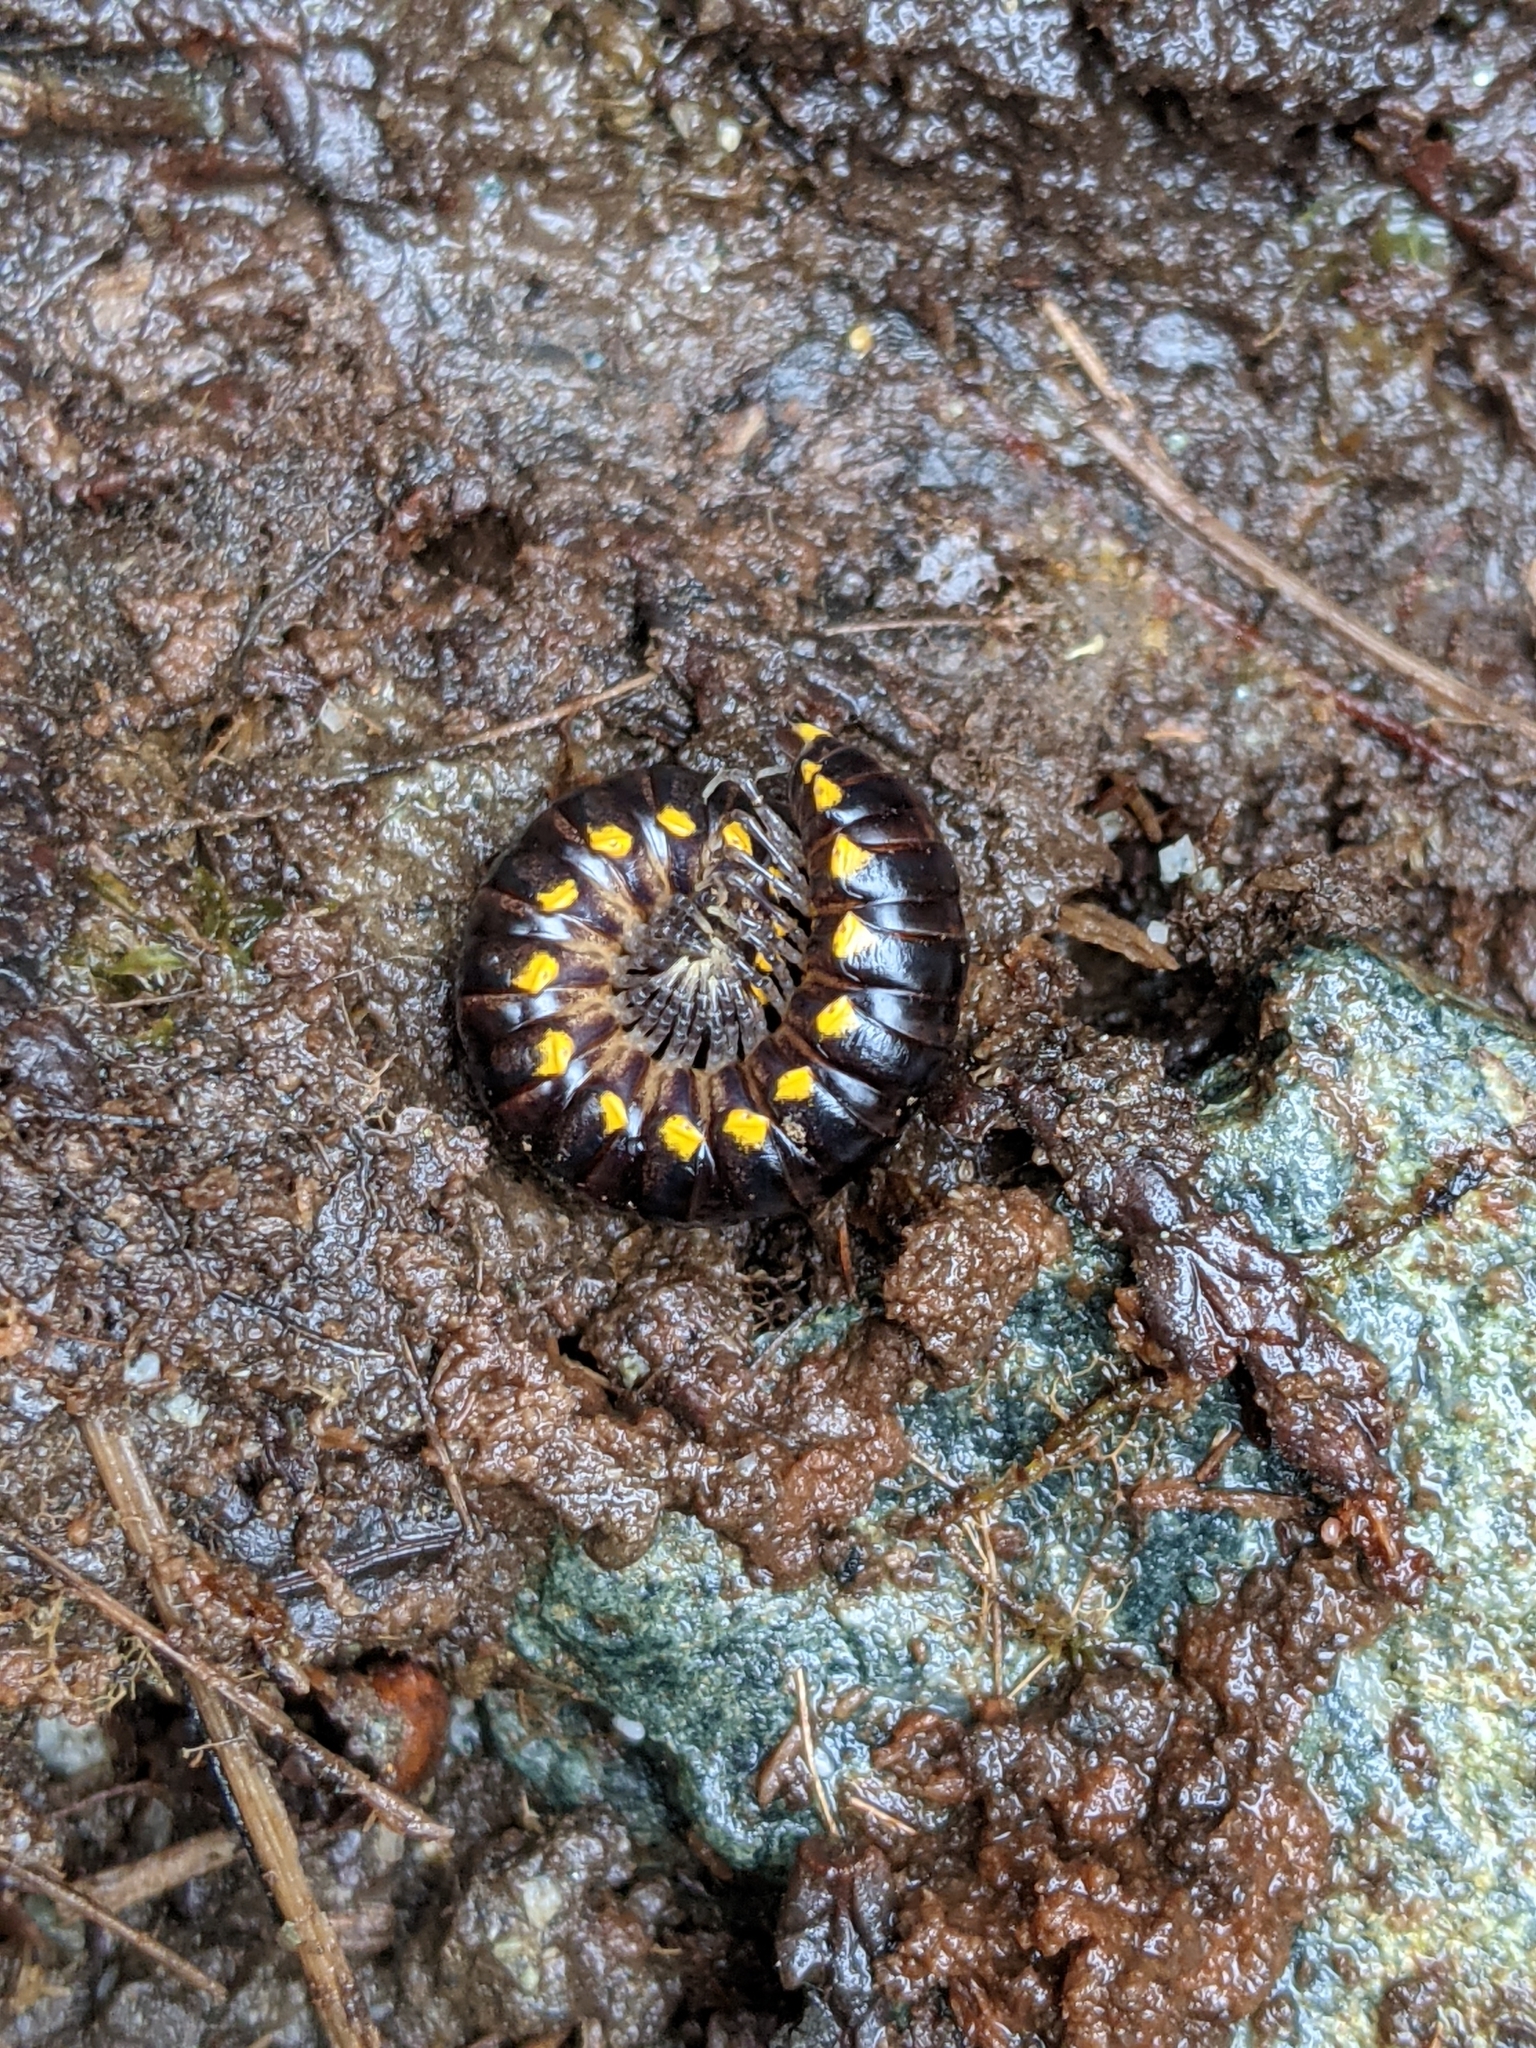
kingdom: Animalia
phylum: Arthropoda
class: Diplopoda
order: Polydesmida
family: Xystodesmidae
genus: Harpaphe
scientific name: Harpaphe haydeniana
